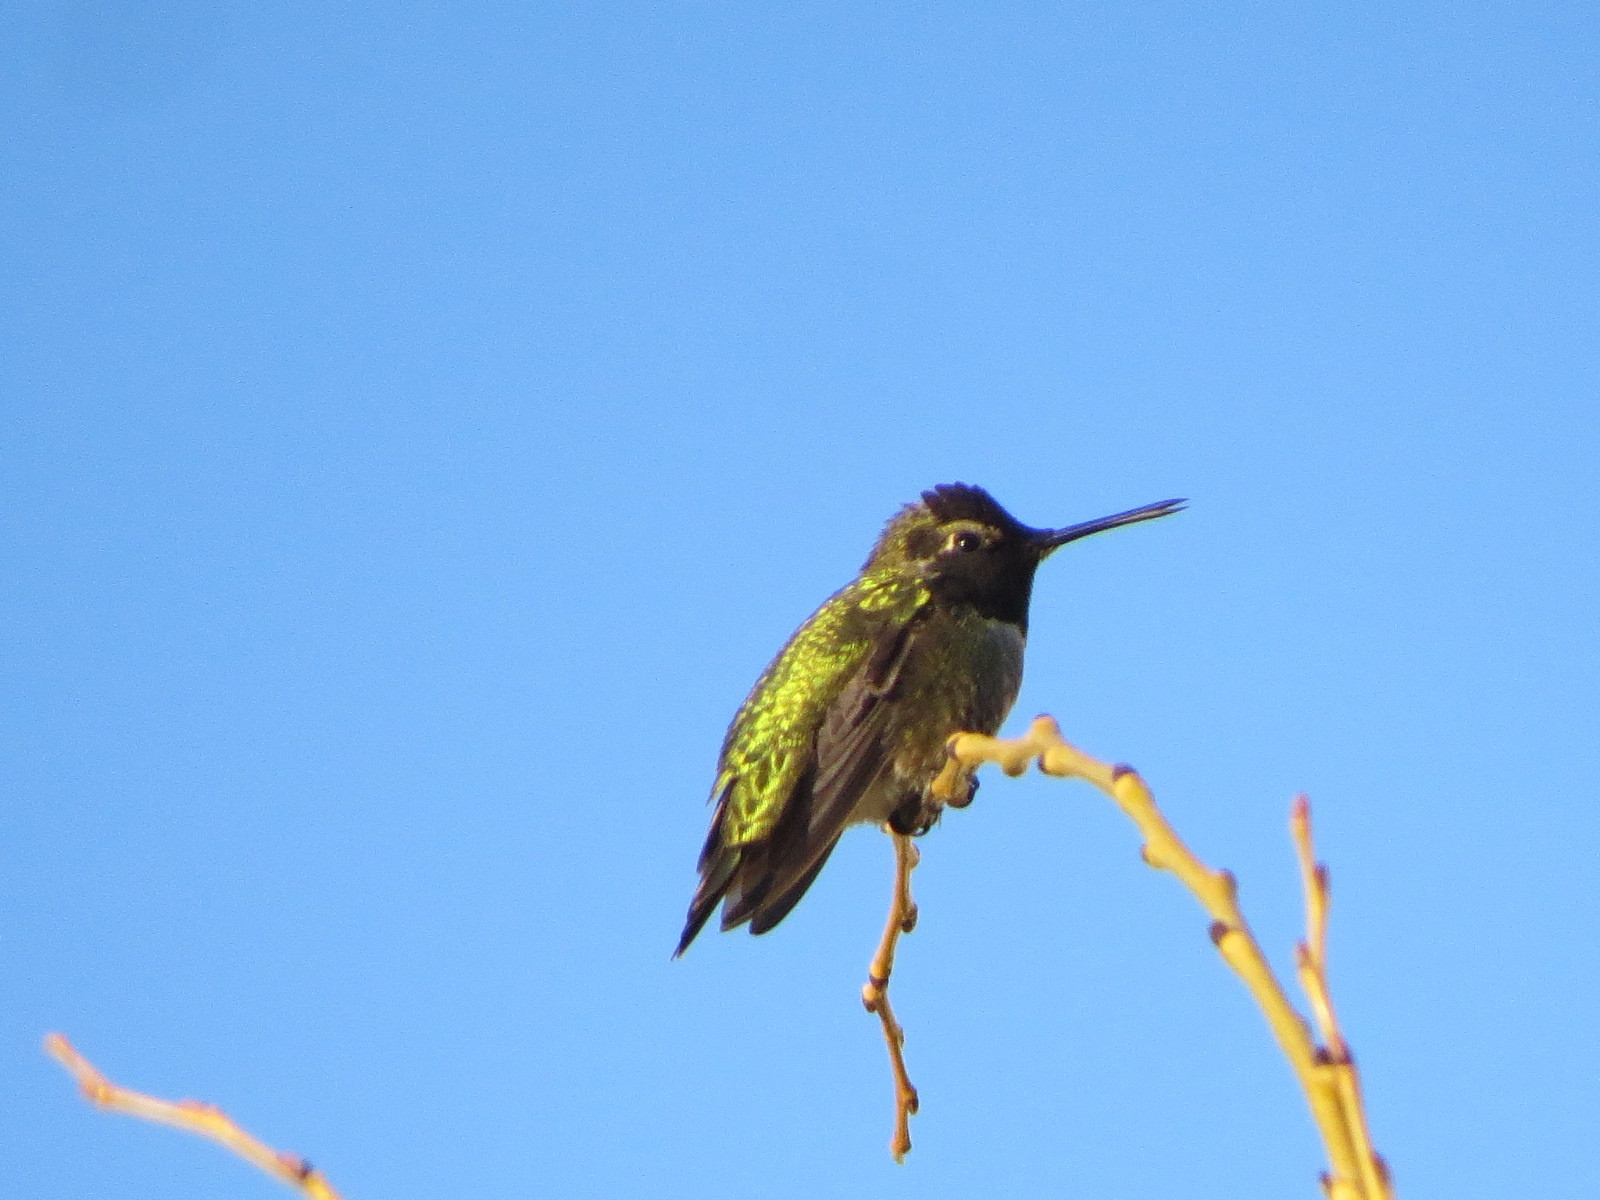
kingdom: Animalia
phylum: Chordata
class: Aves
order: Apodiformes
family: Trochilidae
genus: Calypte
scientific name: Calypte anna
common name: Anna's hummingbird
